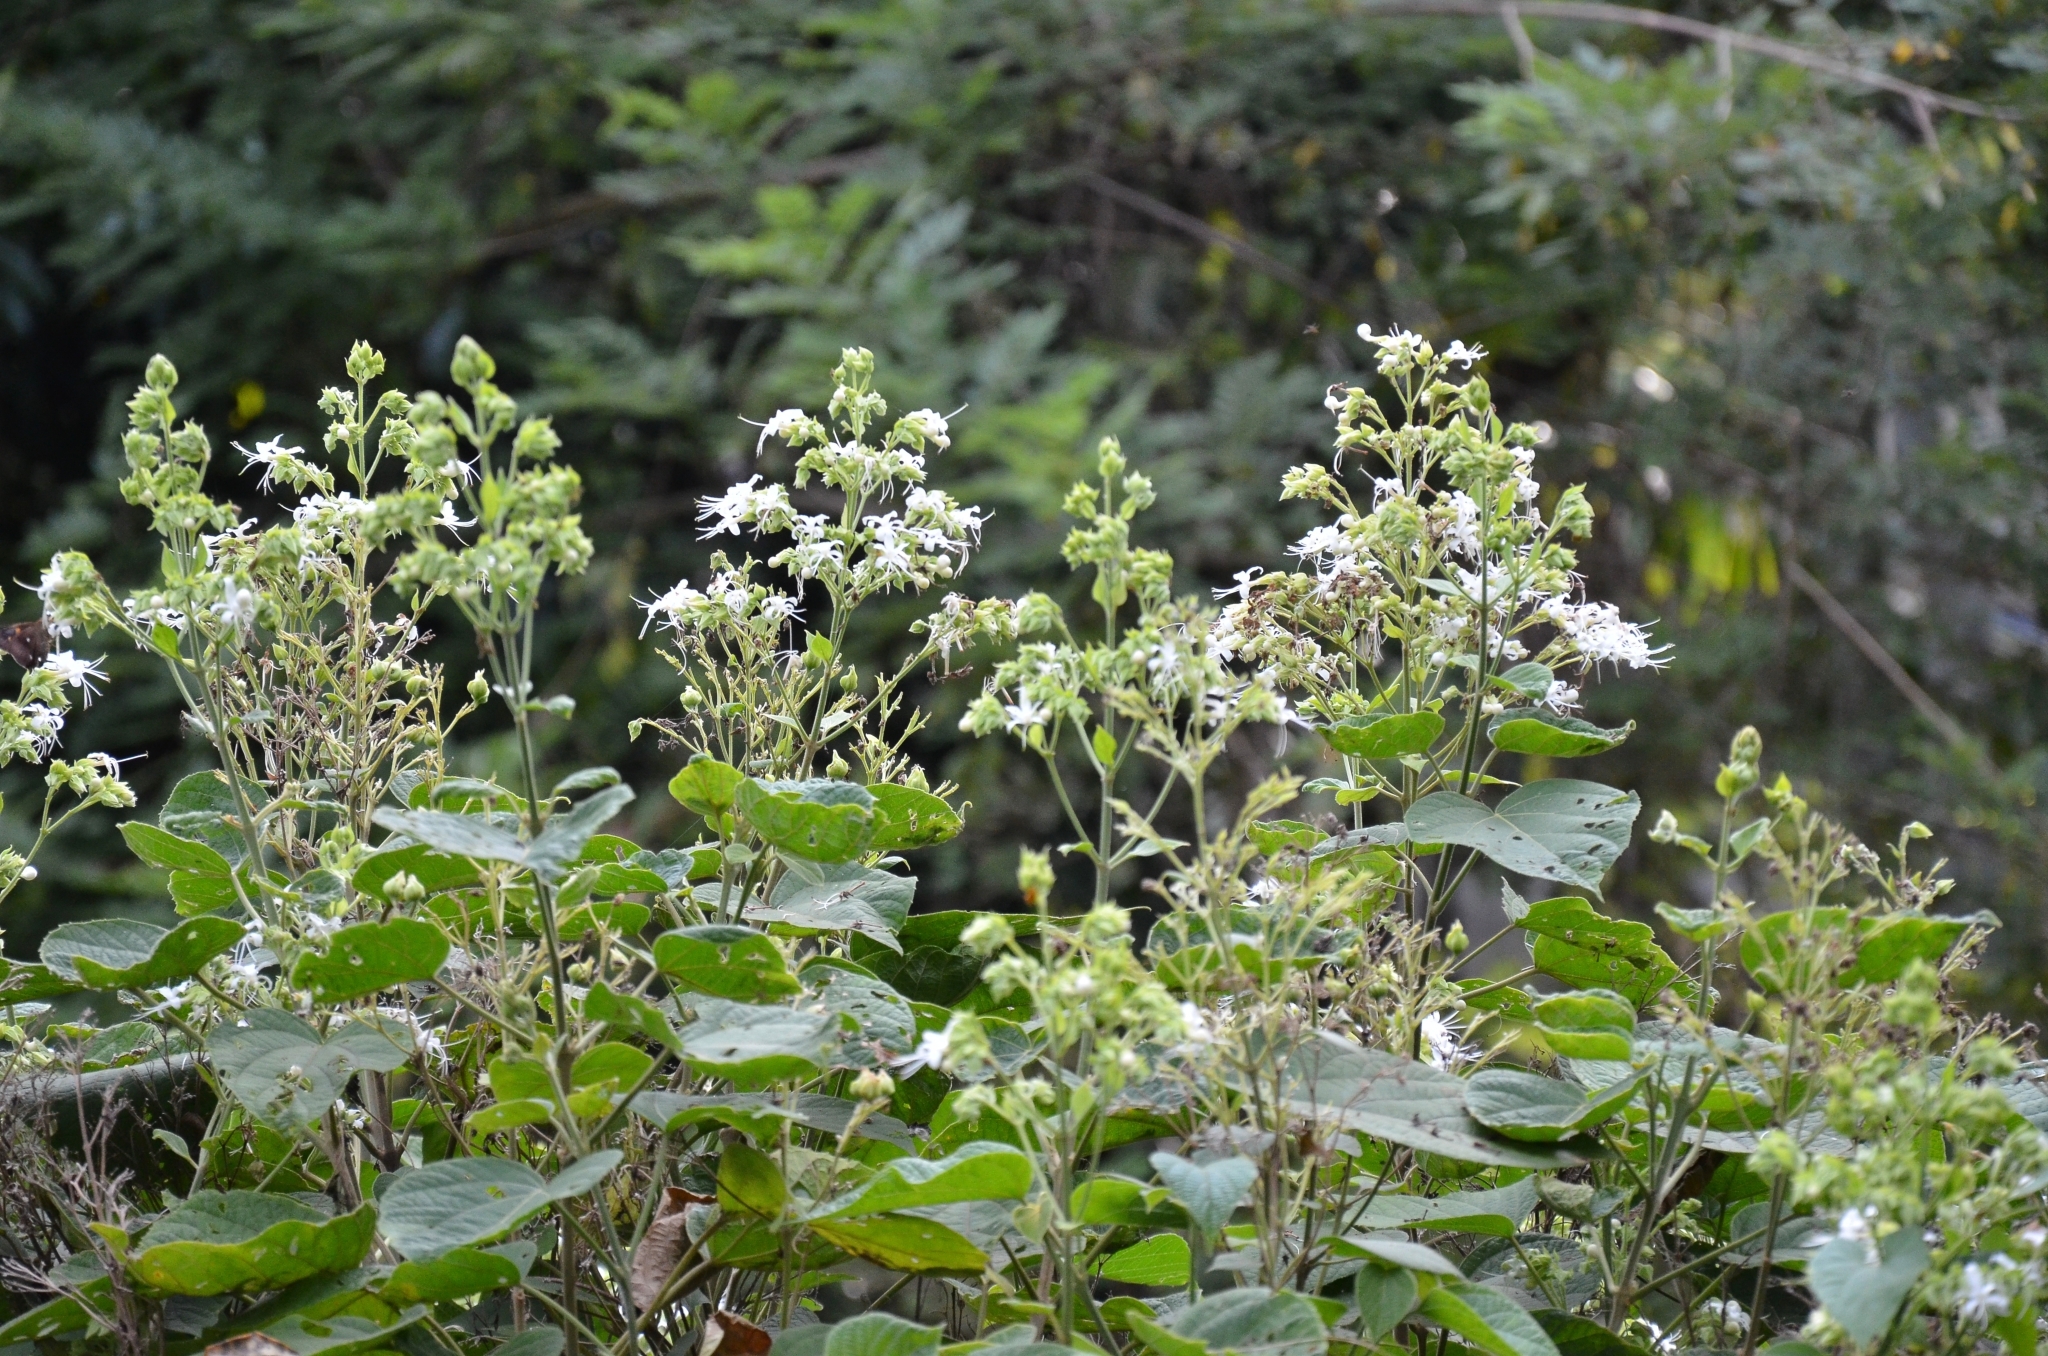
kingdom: Plantae
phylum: Tracheophyta
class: Magnoliopsida
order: Lamiales
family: Lamiaceae
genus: Clerodendrum
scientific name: Clerodendrum infortunatum
